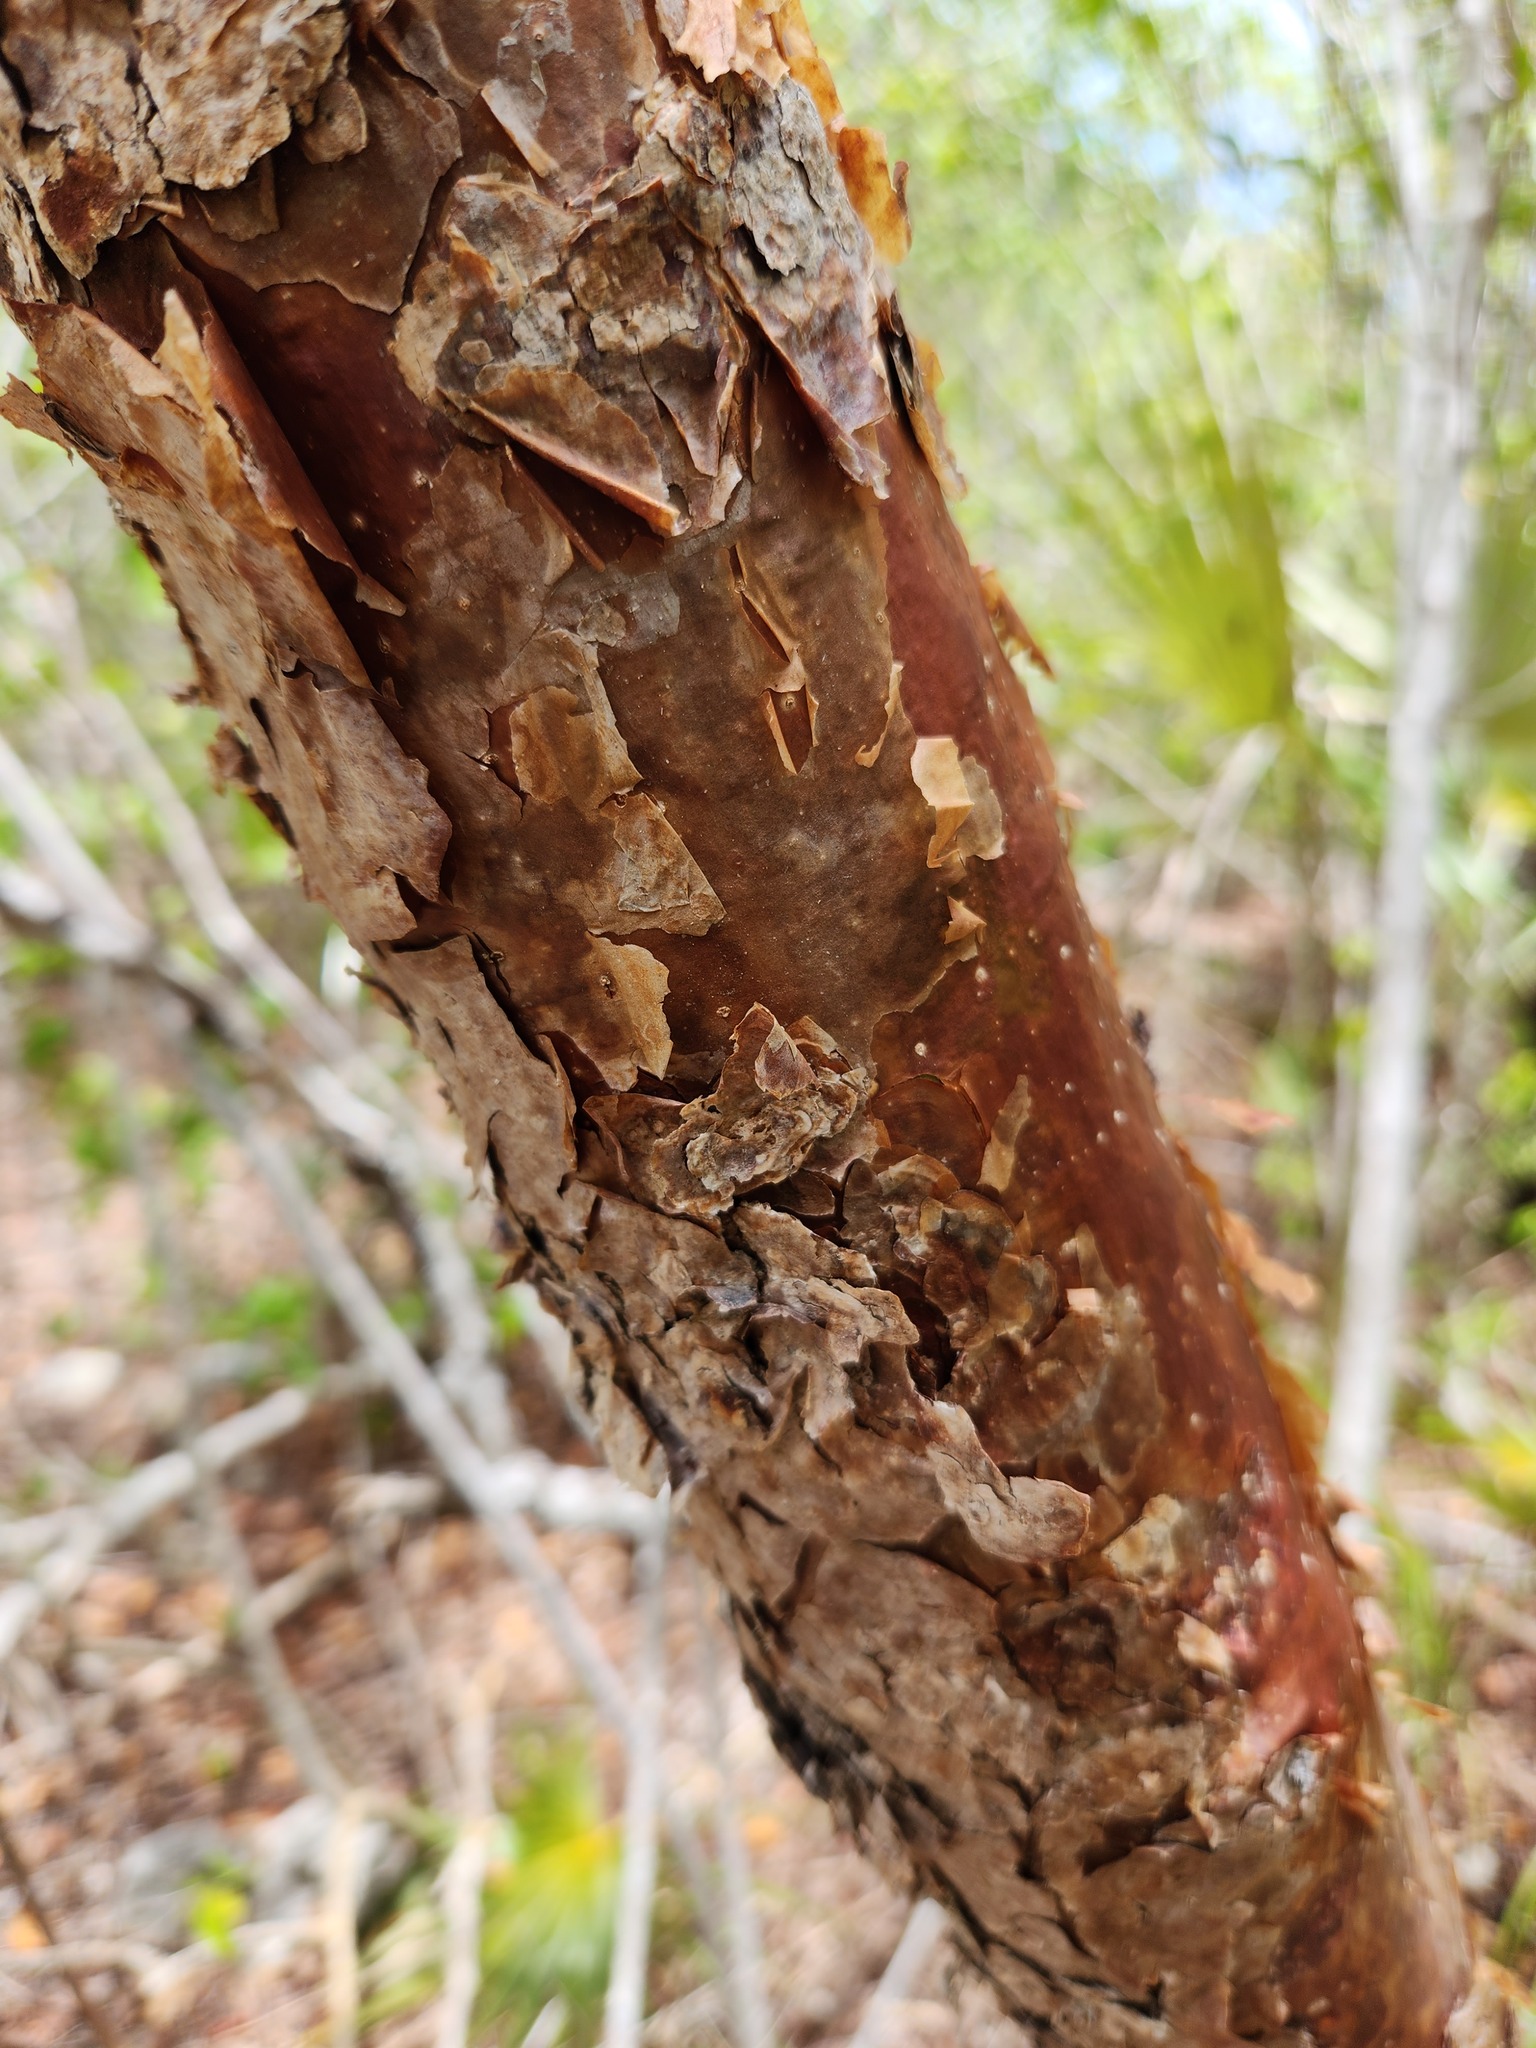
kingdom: Plantae
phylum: Tracheophyta
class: Magnoliopsida
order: Sapindales
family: Burseraceae
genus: Bursera
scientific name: Bursera simaruba
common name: Turpentine tree
